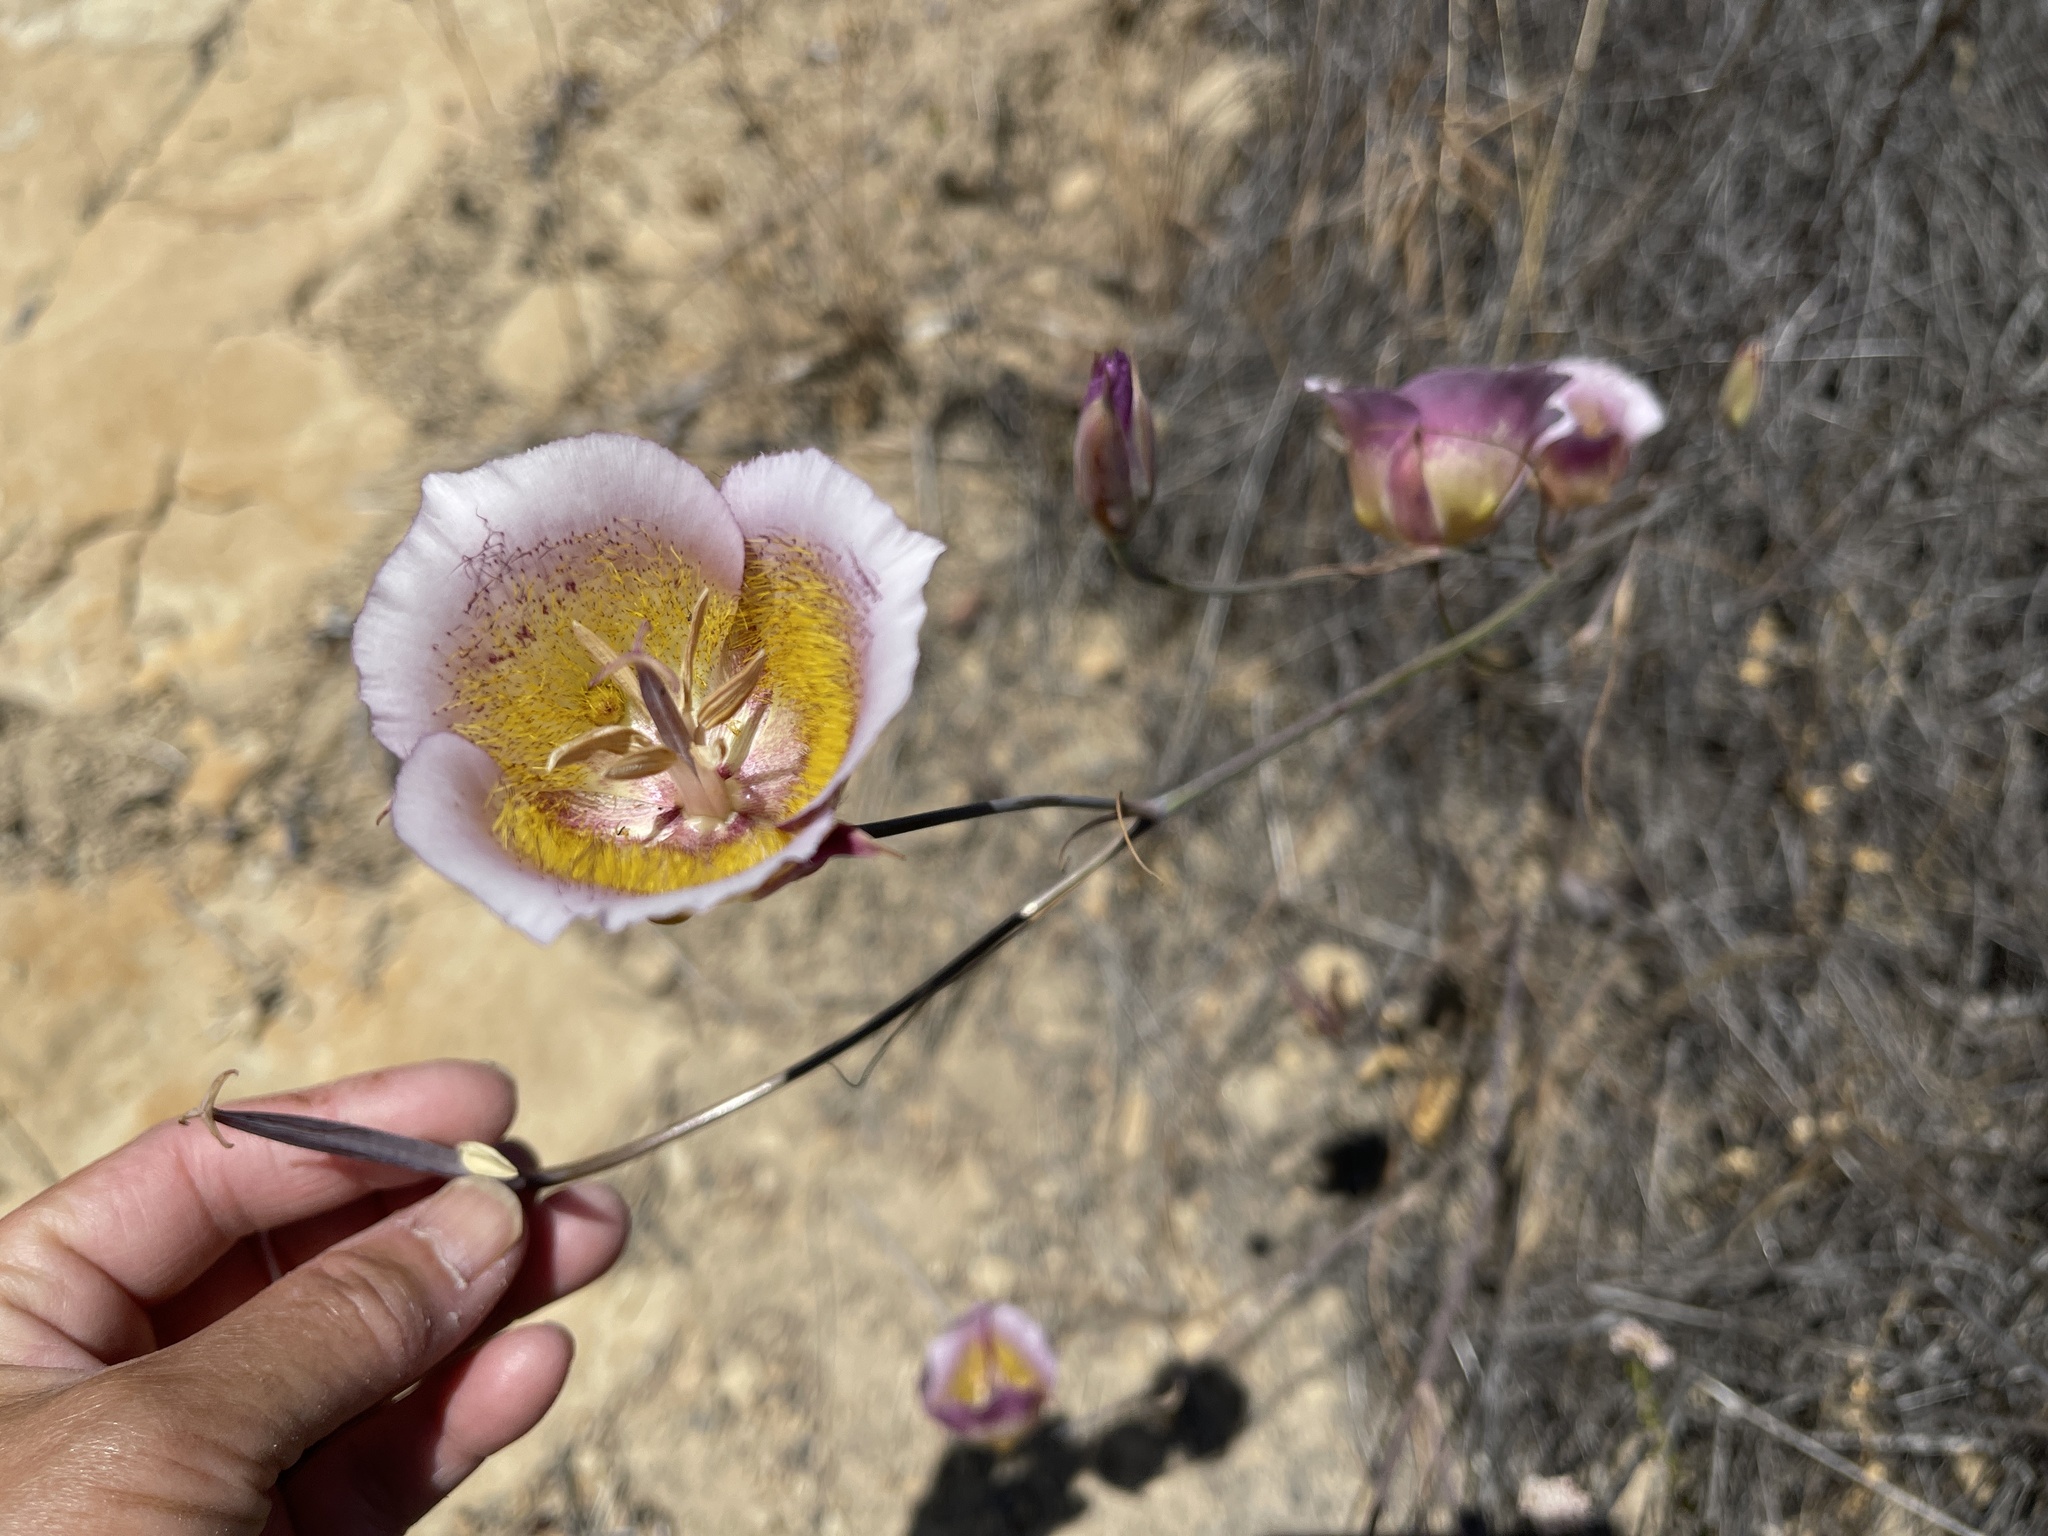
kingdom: Plantae
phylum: Tracheophyta
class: Liliopsida
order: Liliales
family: Liliaceae
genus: Calochortus
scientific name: Calochortus plummerae
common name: Plummer's mariposa-lily
